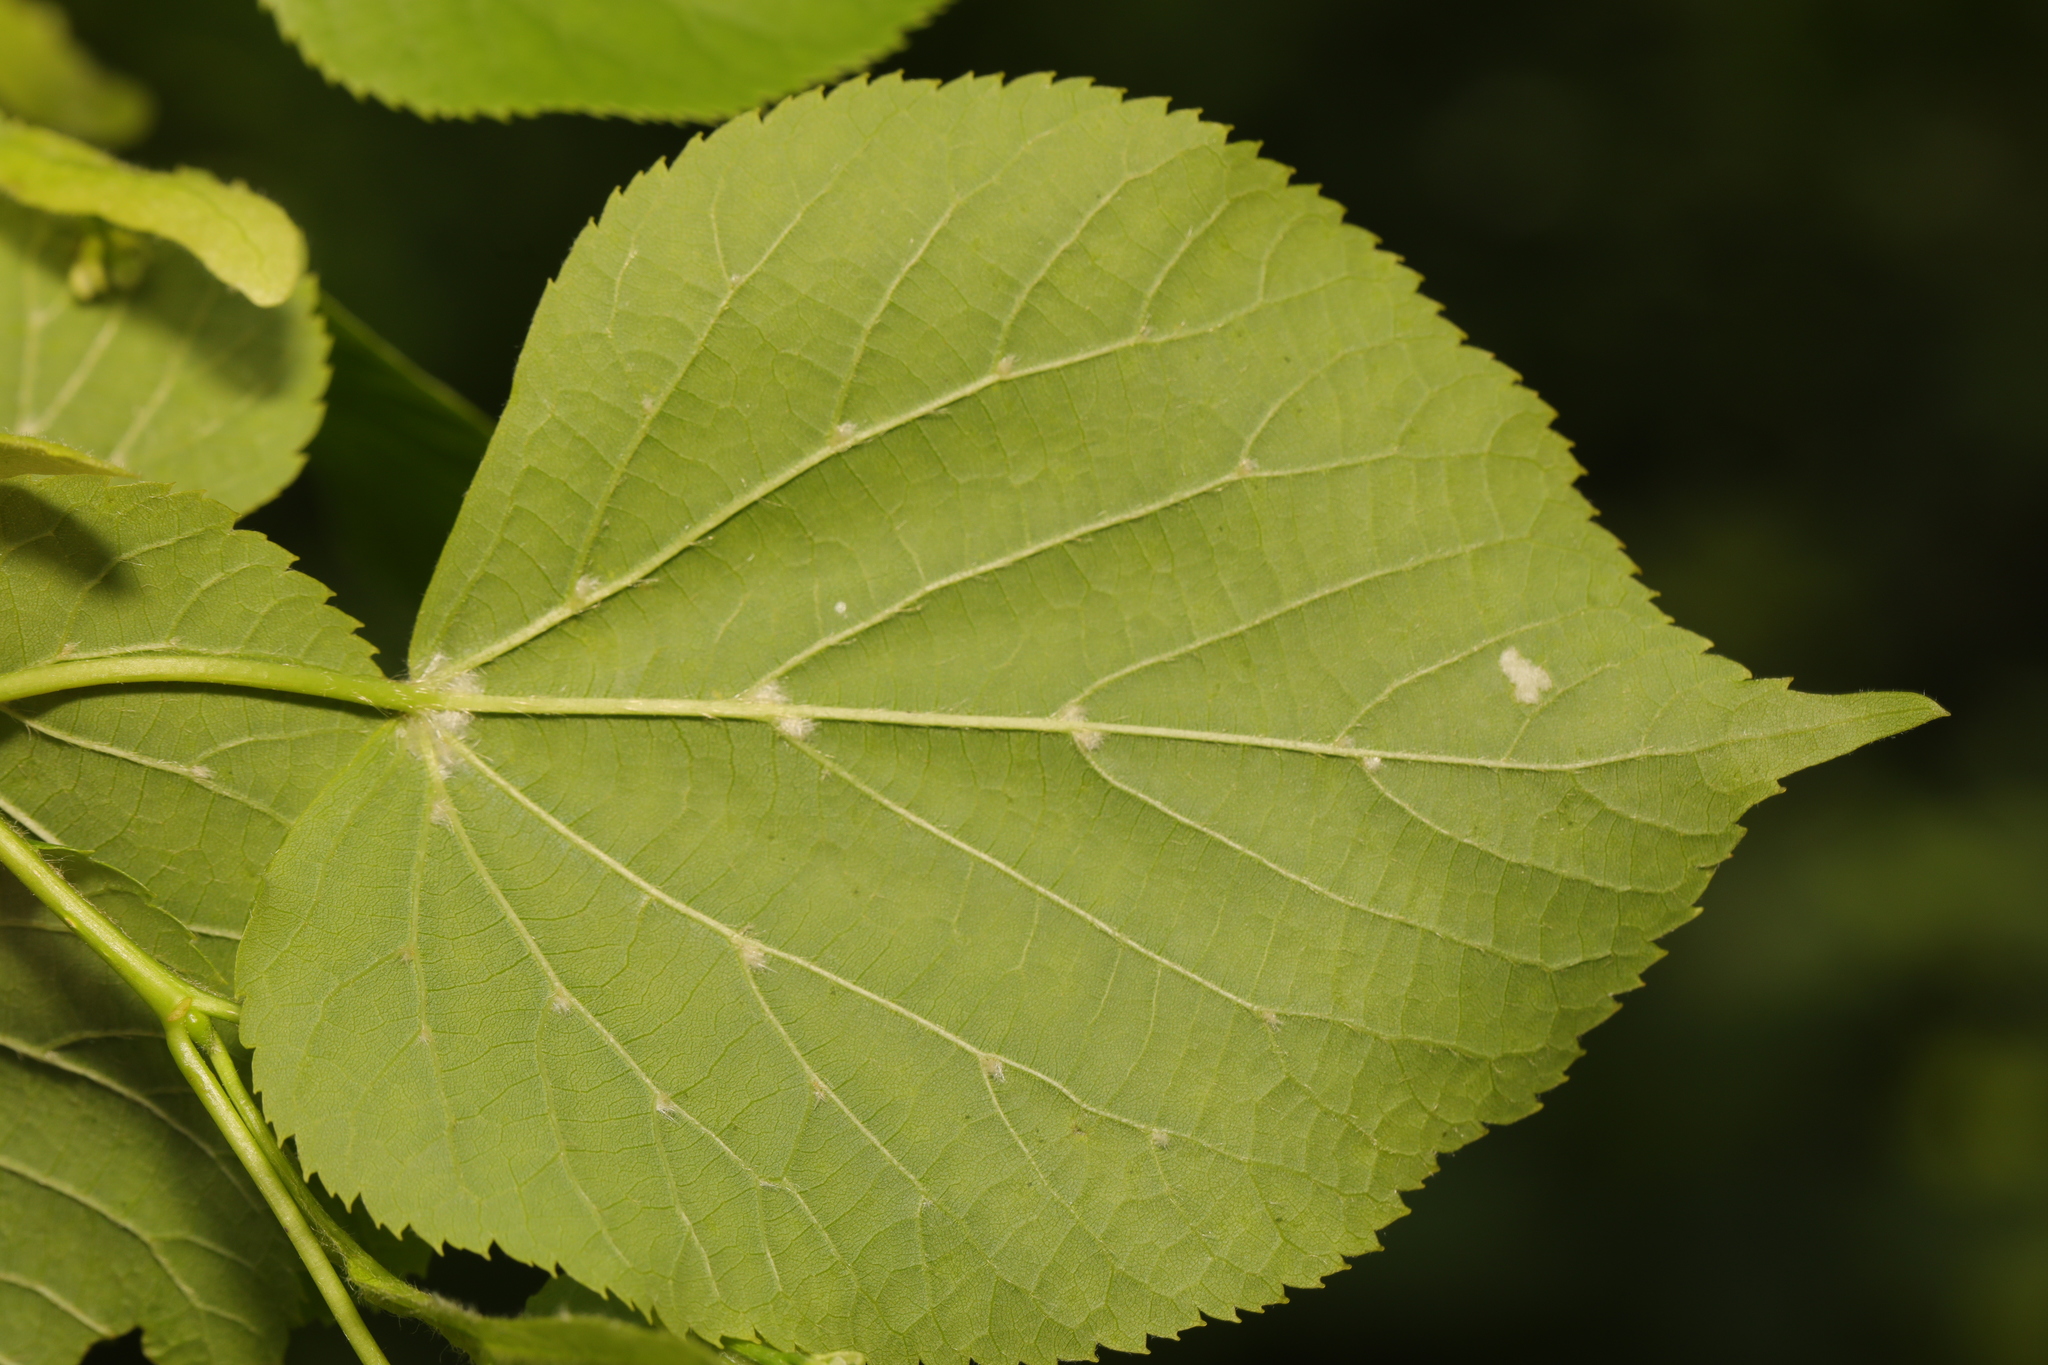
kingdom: Animalia
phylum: Arthropoda
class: Arachnida
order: Trombidiformes
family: Eriophyidae
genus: Eriophyes
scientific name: Eriophyes exilis
